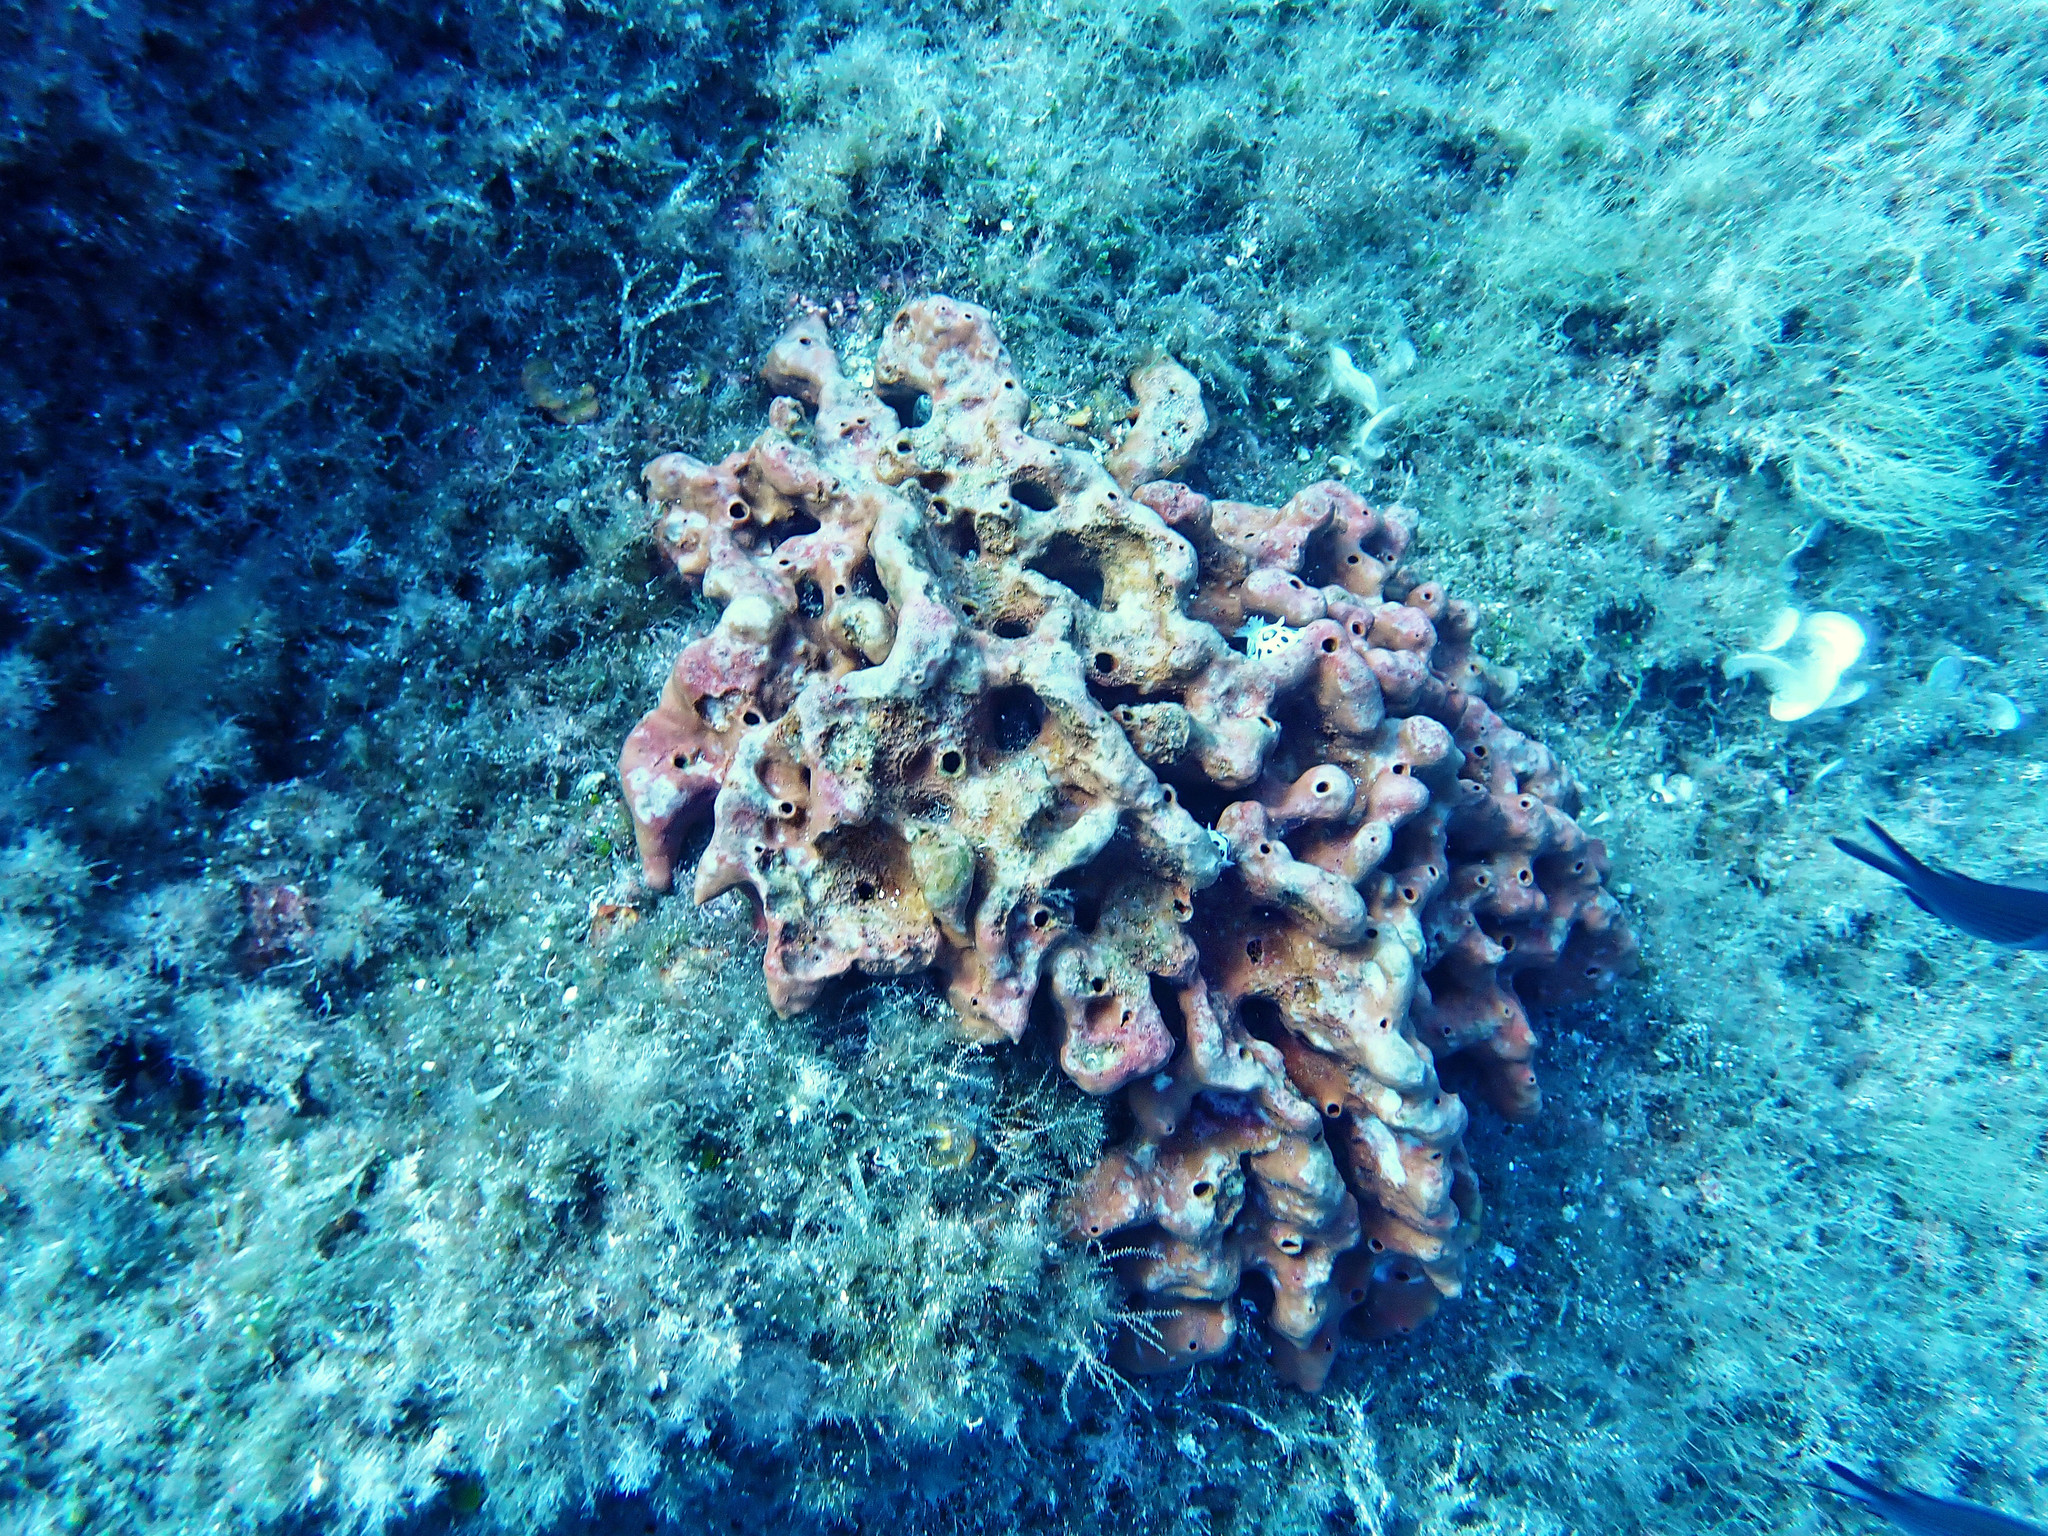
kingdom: Animalia
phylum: Porifera
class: Demospongiae
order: Haplosclerida
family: Petrosiidae
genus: Petrosia
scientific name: Petrosia ficiformis
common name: Stony sponge
